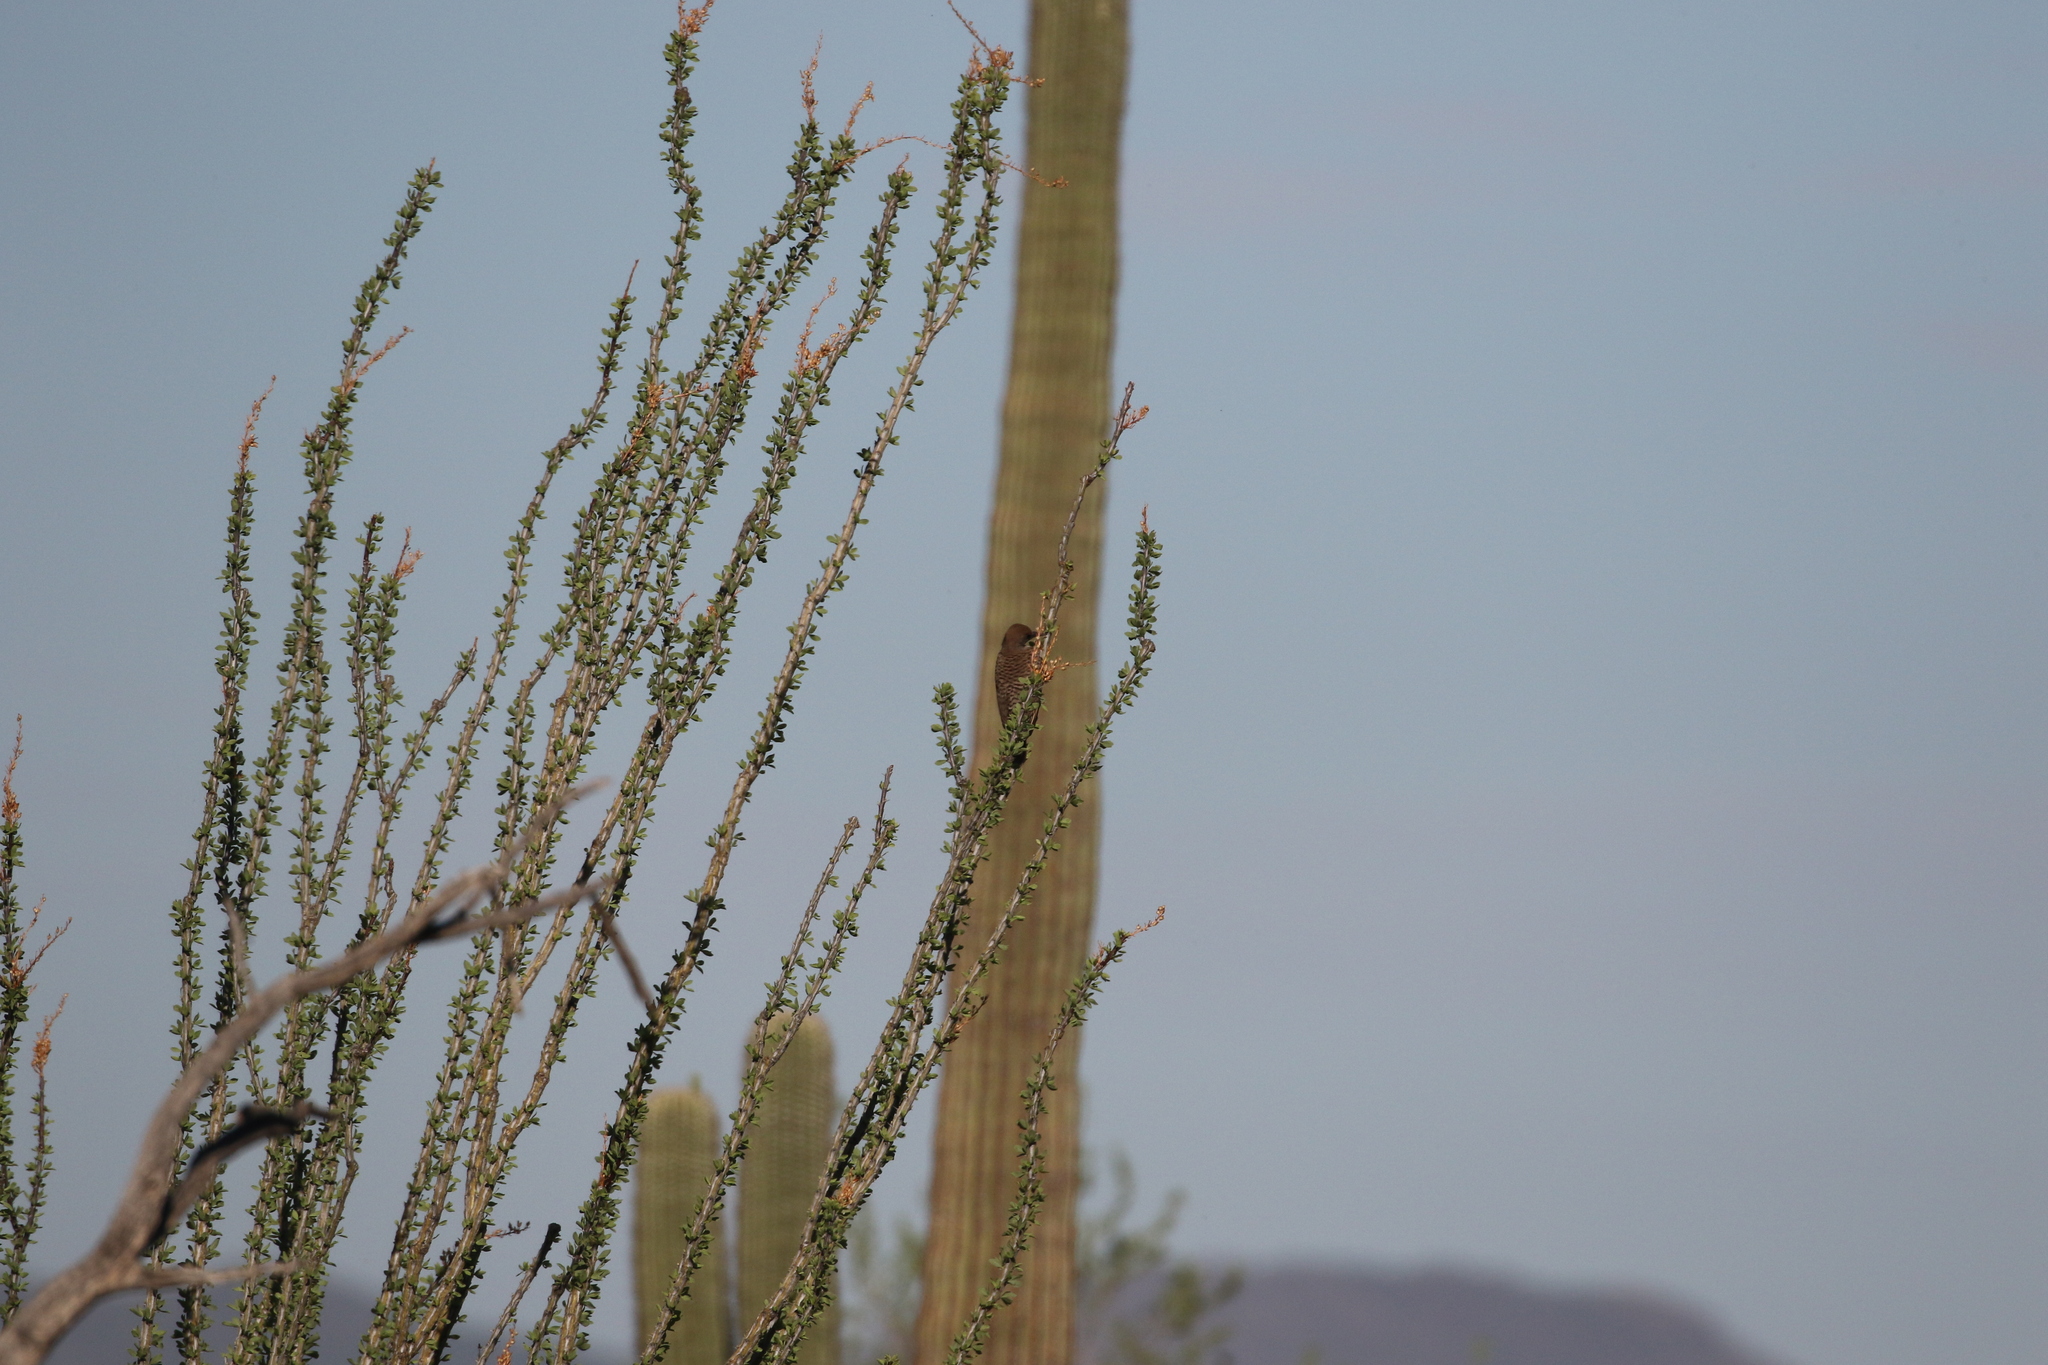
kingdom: Animalia
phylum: Chordata
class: Aves
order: Piciformes
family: Picidae
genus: Colaptes
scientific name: Colaptes chrysoides
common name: Gilded flicker
